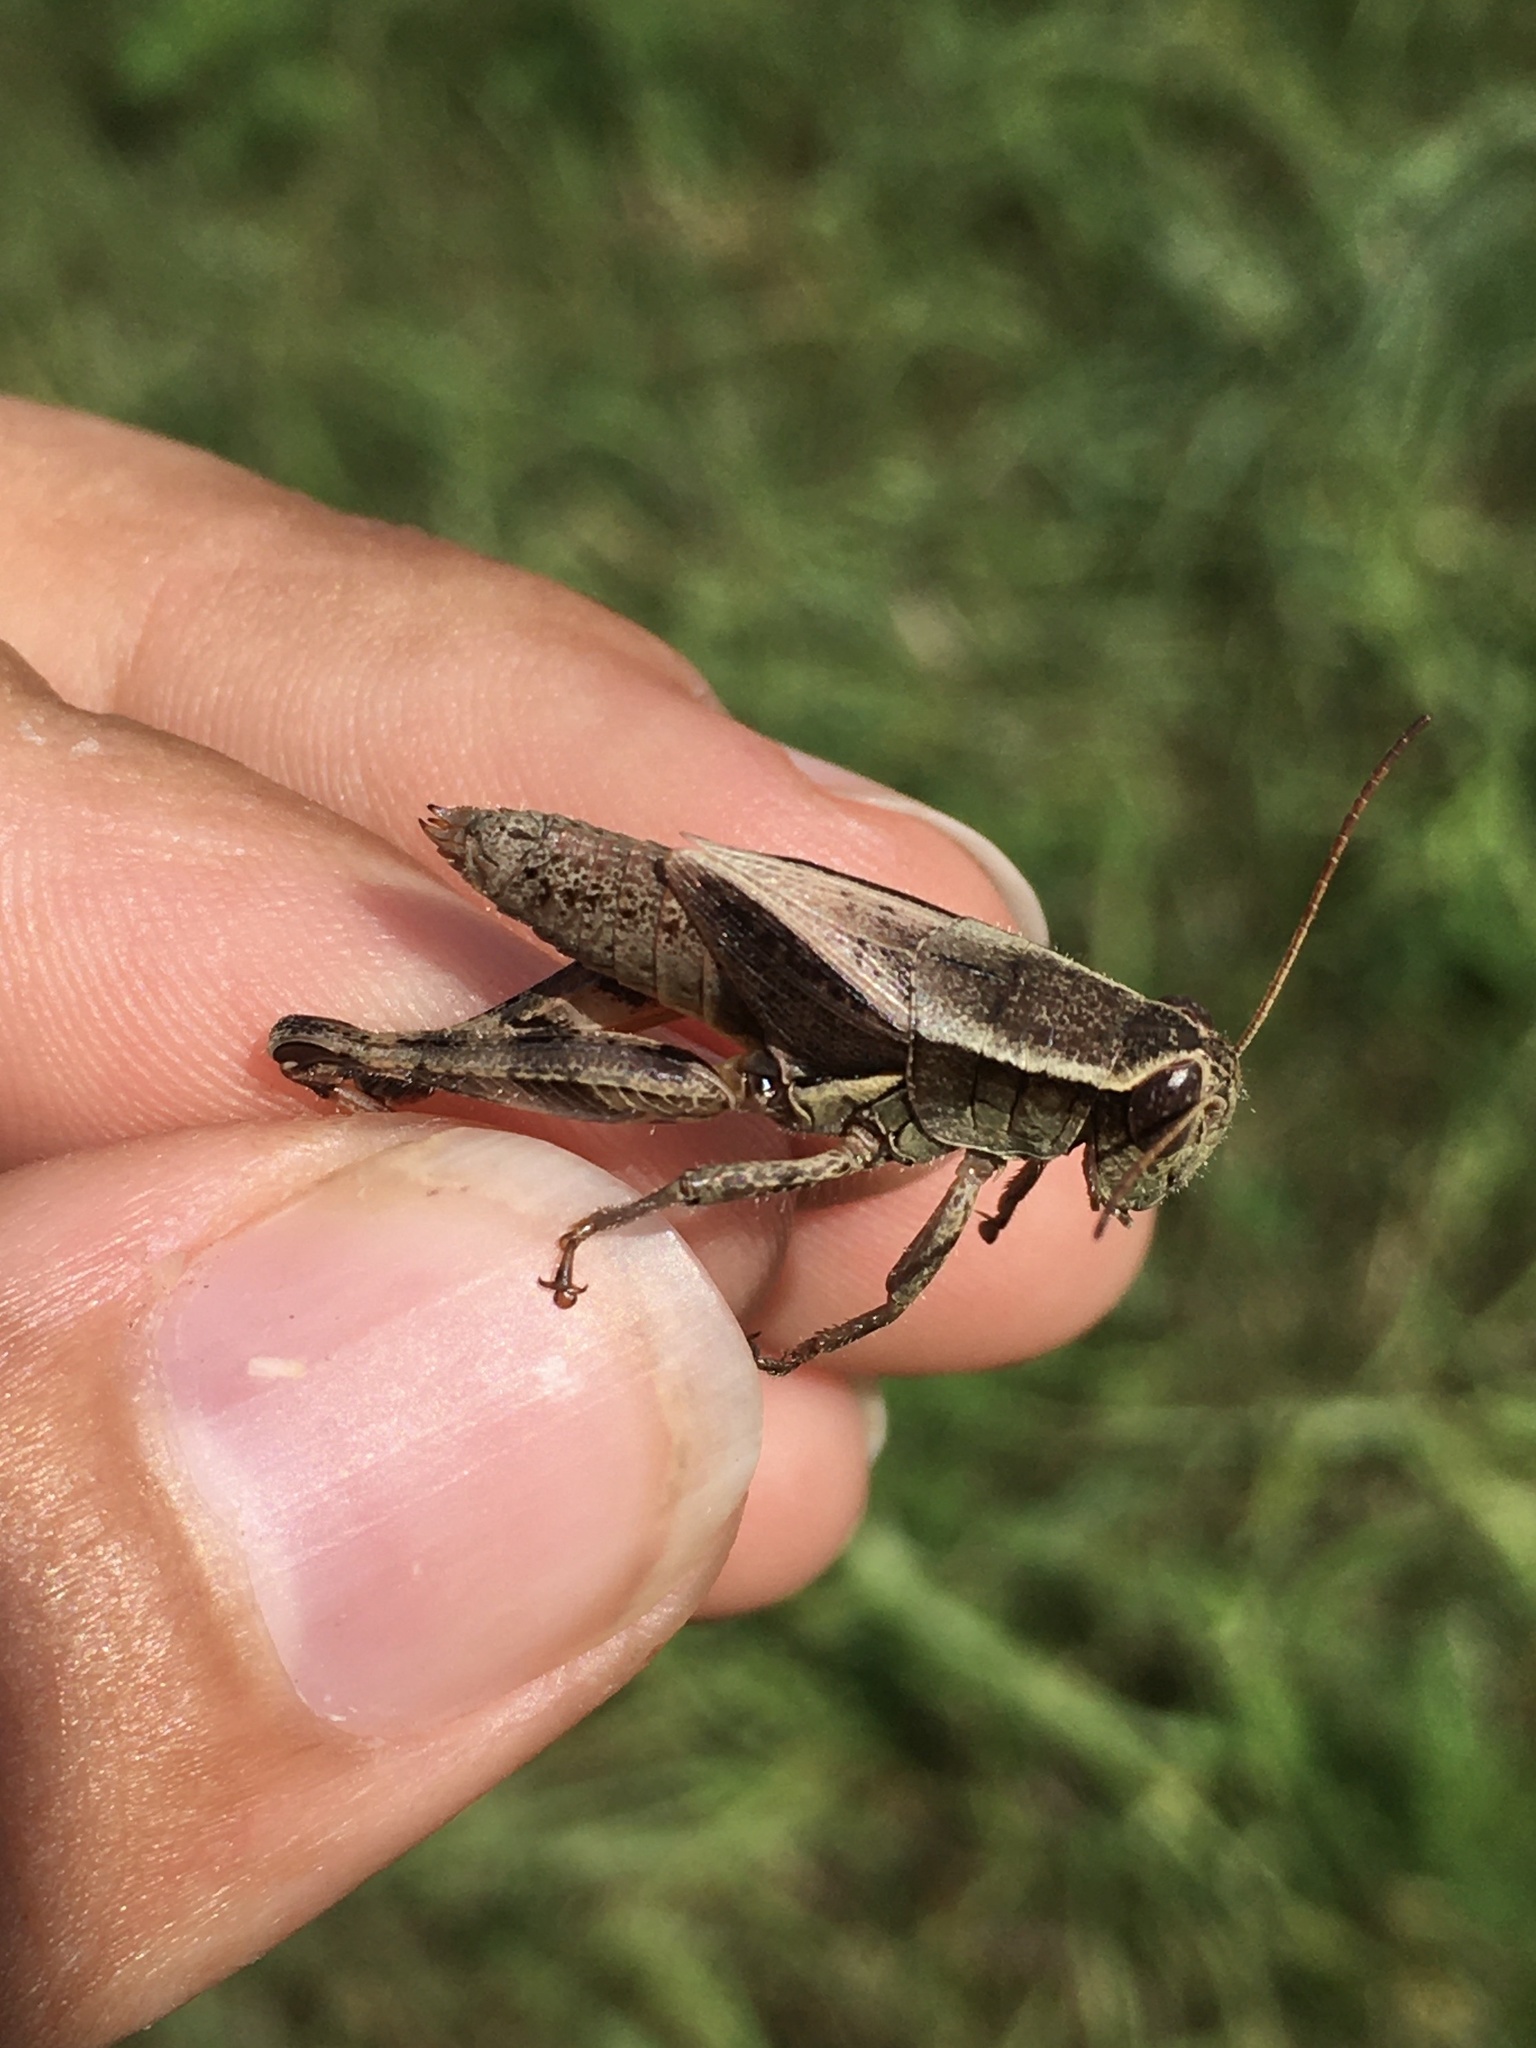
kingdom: Animalia
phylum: Arthropoda
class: Insecta
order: Orthoptera
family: Acrididae
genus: Melanoplus
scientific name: Melanoplus walshii
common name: Walsh's locust
